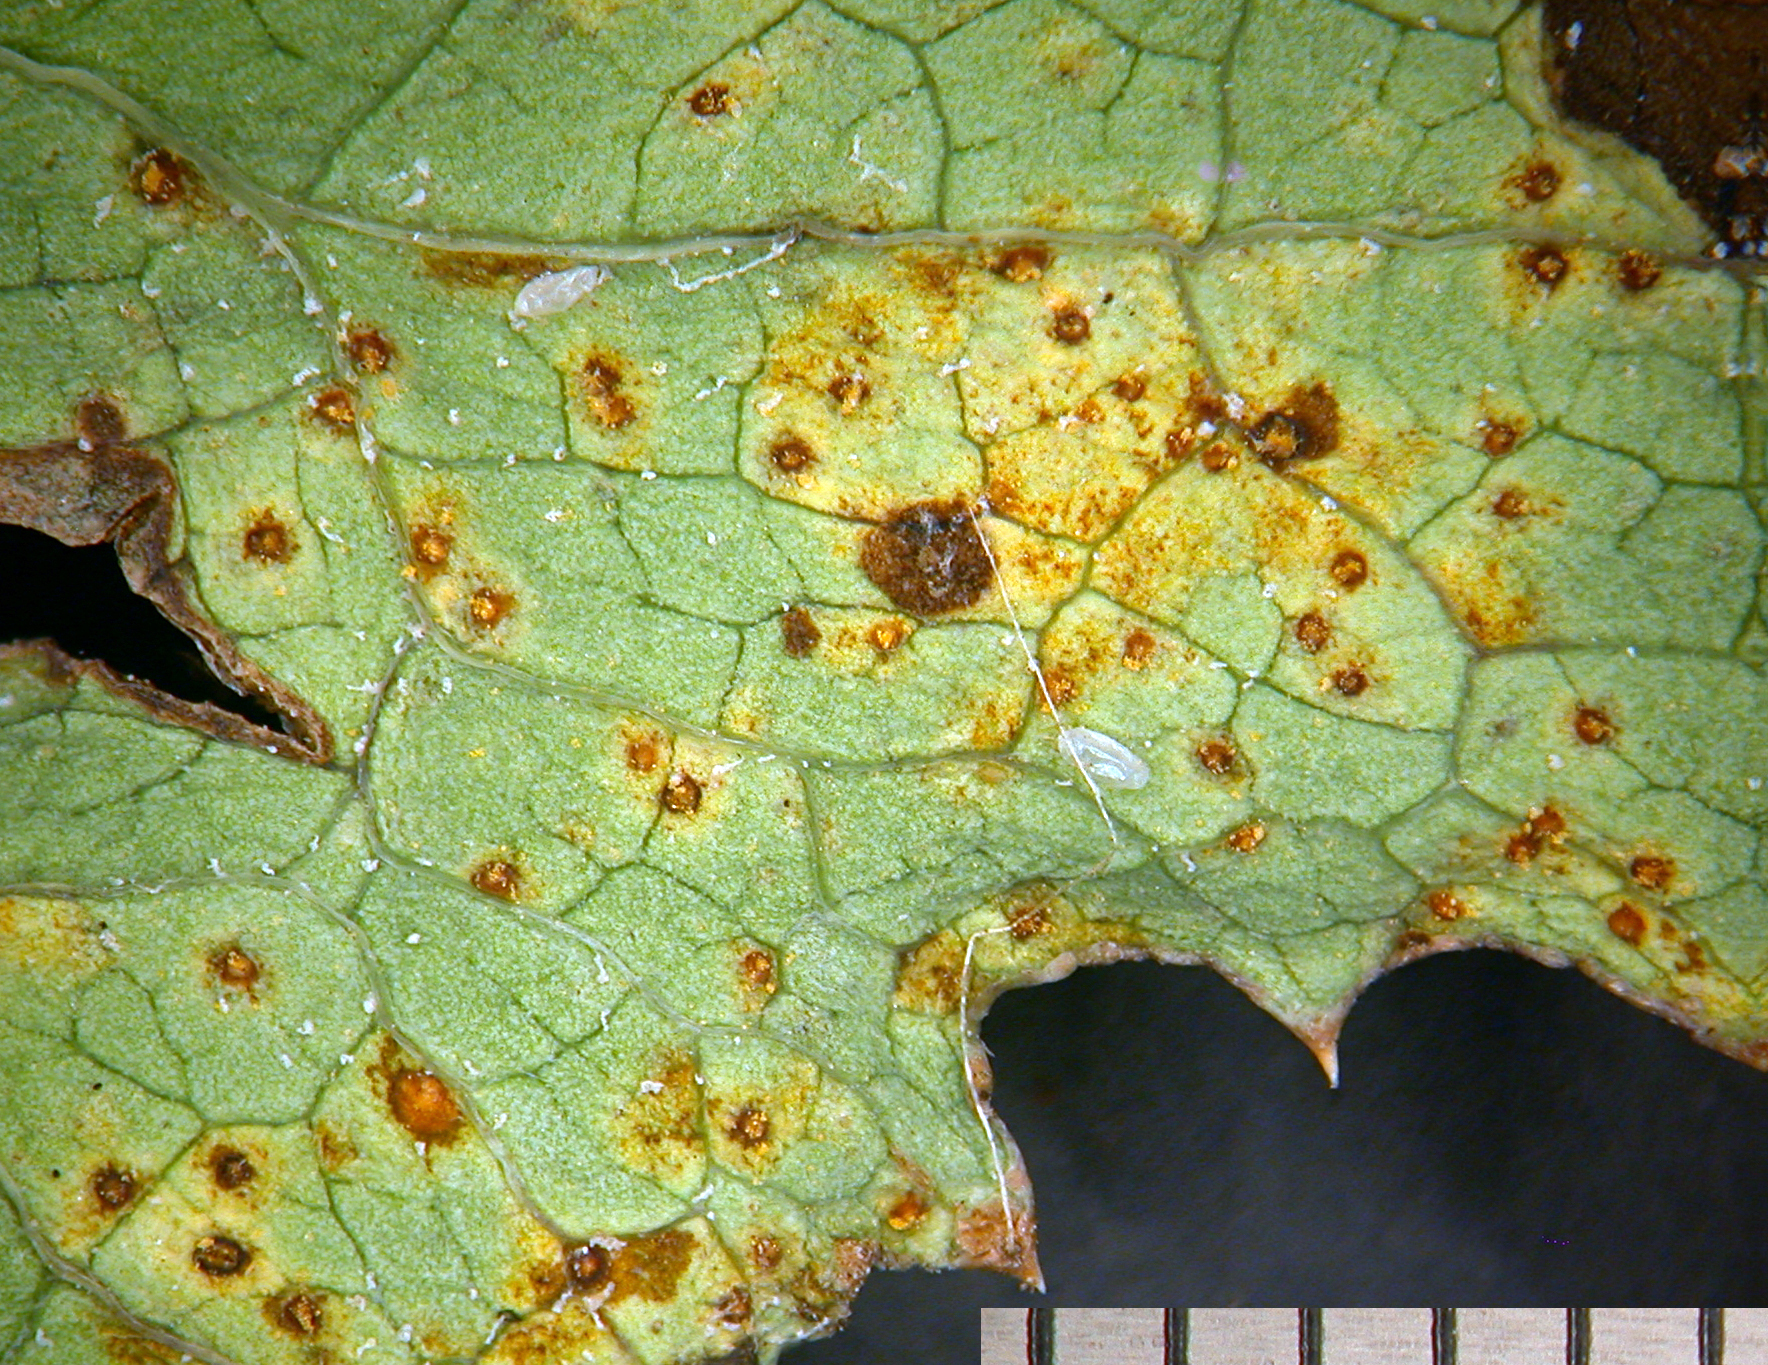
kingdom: Fungi
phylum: Basidiomycota
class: Pucciniomycetes
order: Pucciniales
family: Pucciniaceae
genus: Peristemma
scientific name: Peristemma pseudosphaeria
